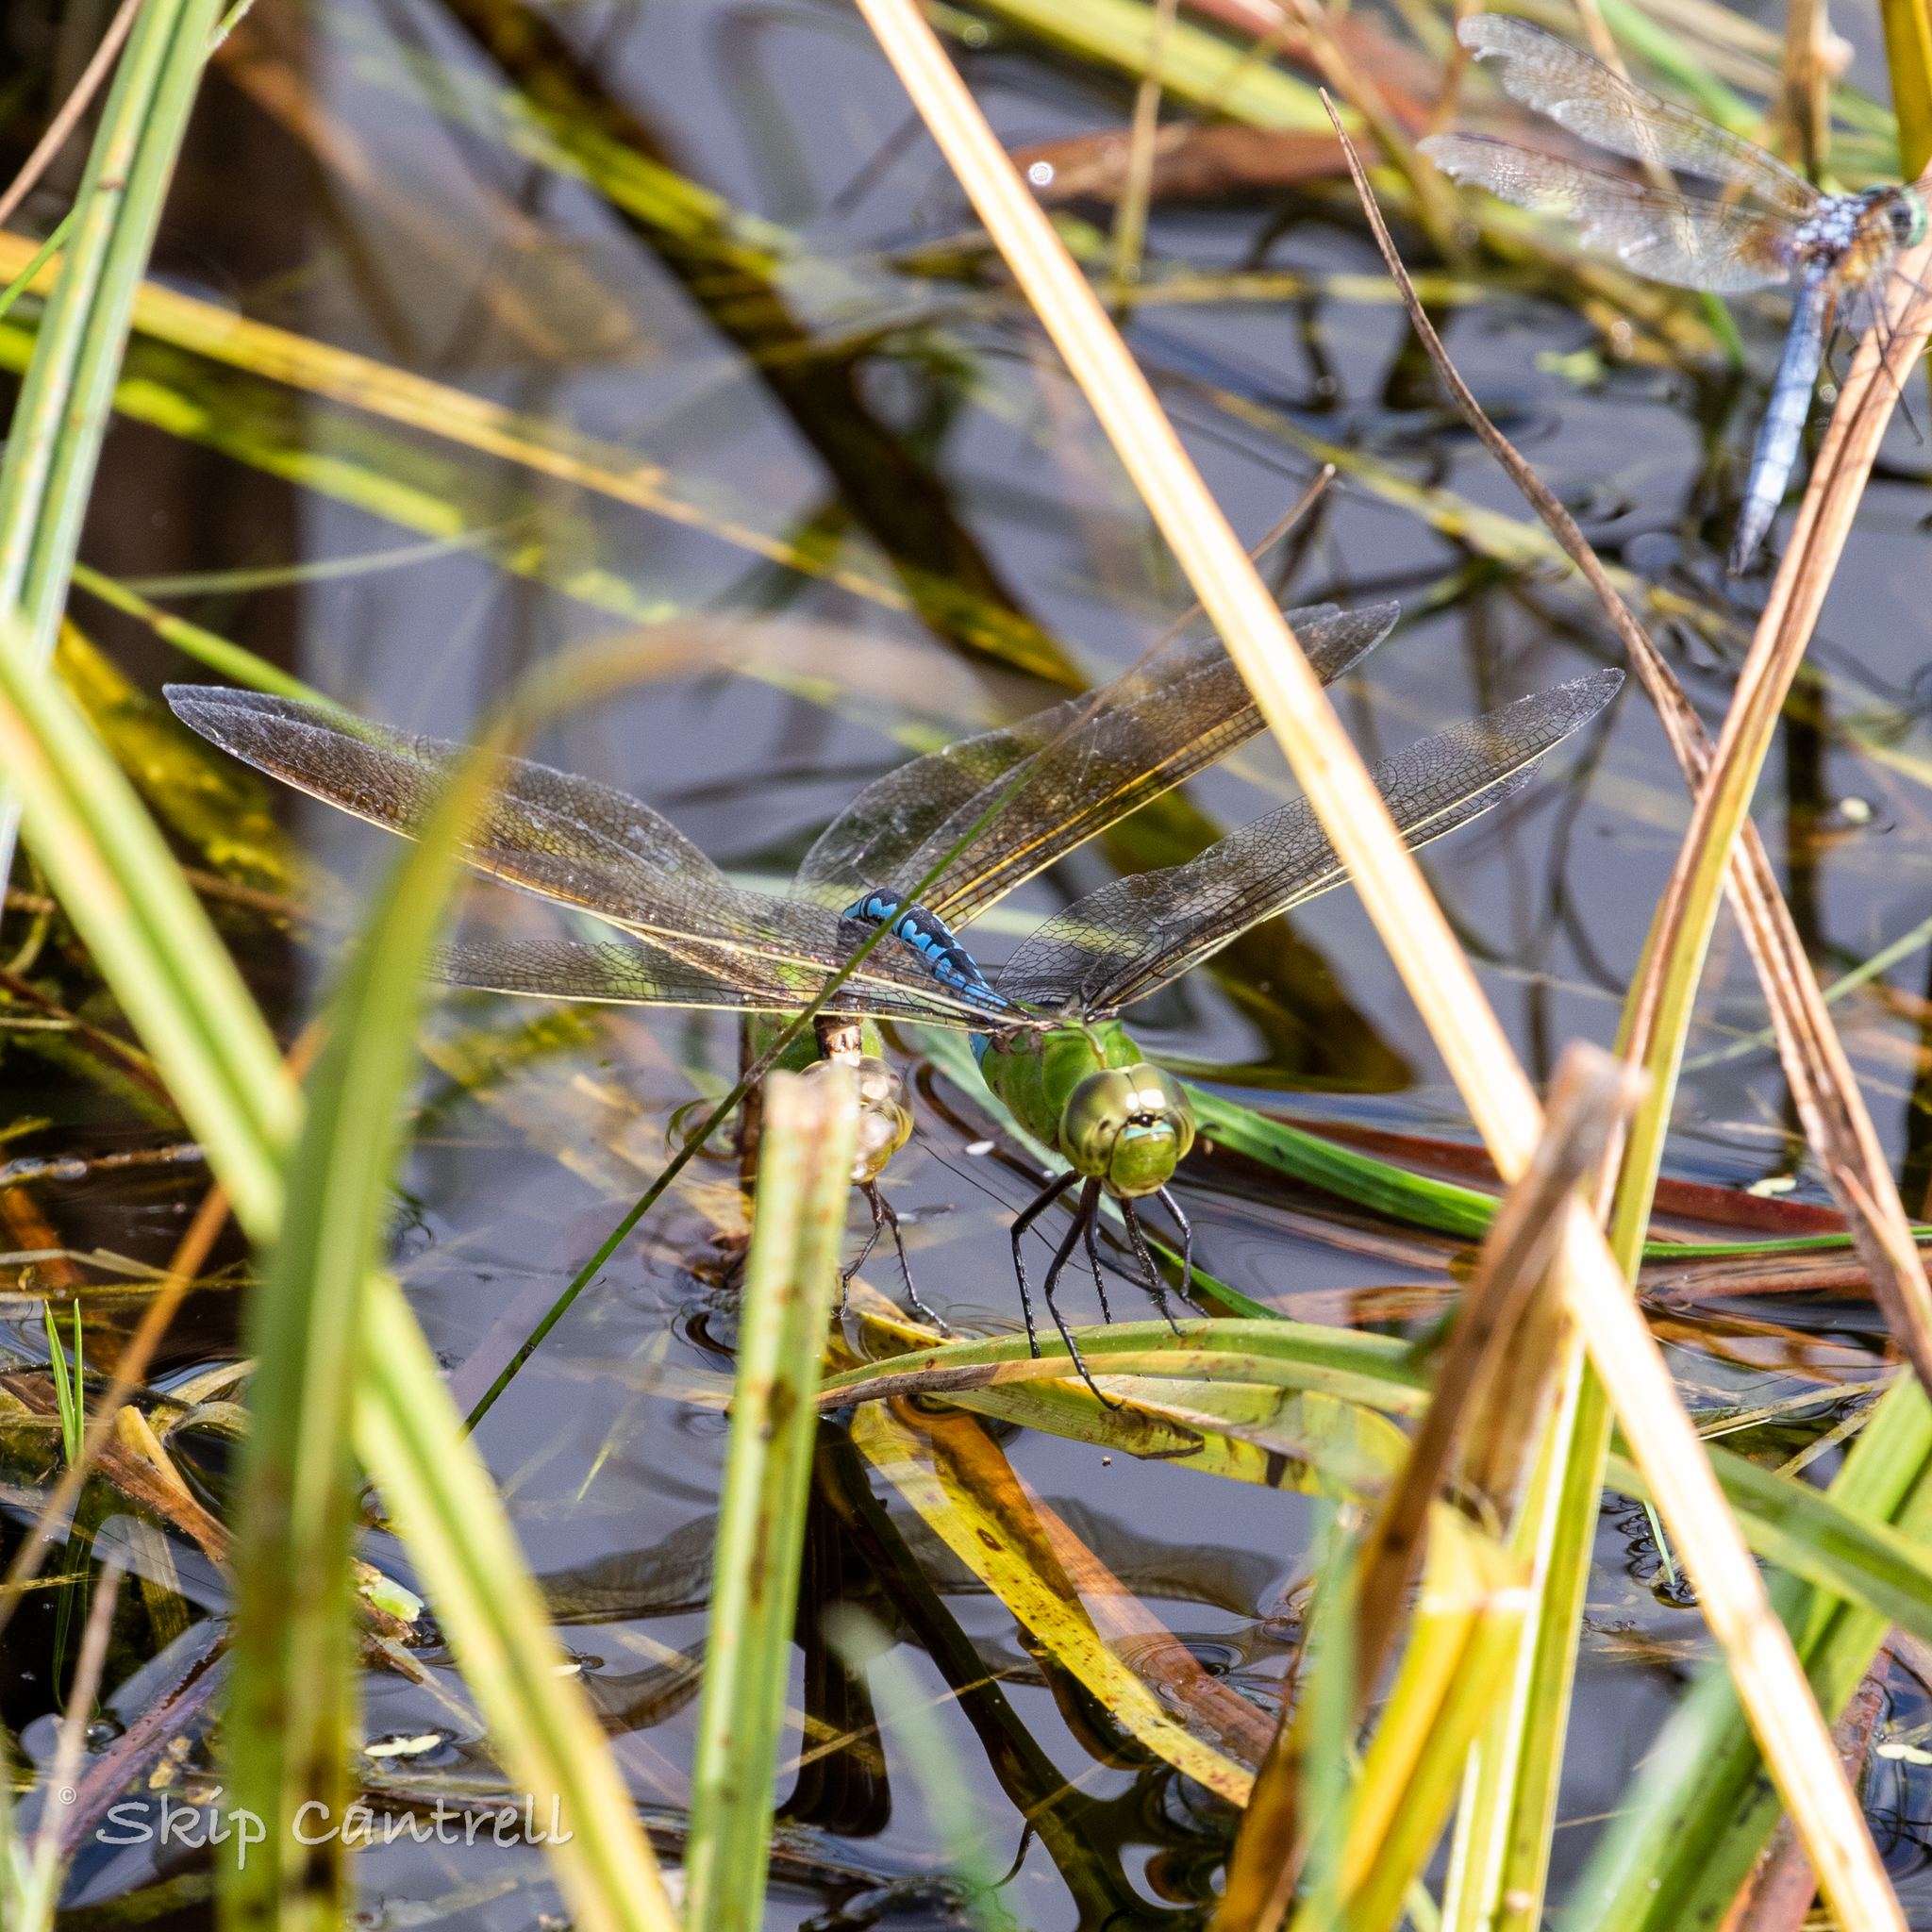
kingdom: Animalia
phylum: Arthropoda
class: Insecta
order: Odonata
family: Aeshnidae
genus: Anax
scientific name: Anax junius
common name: Common green darner
